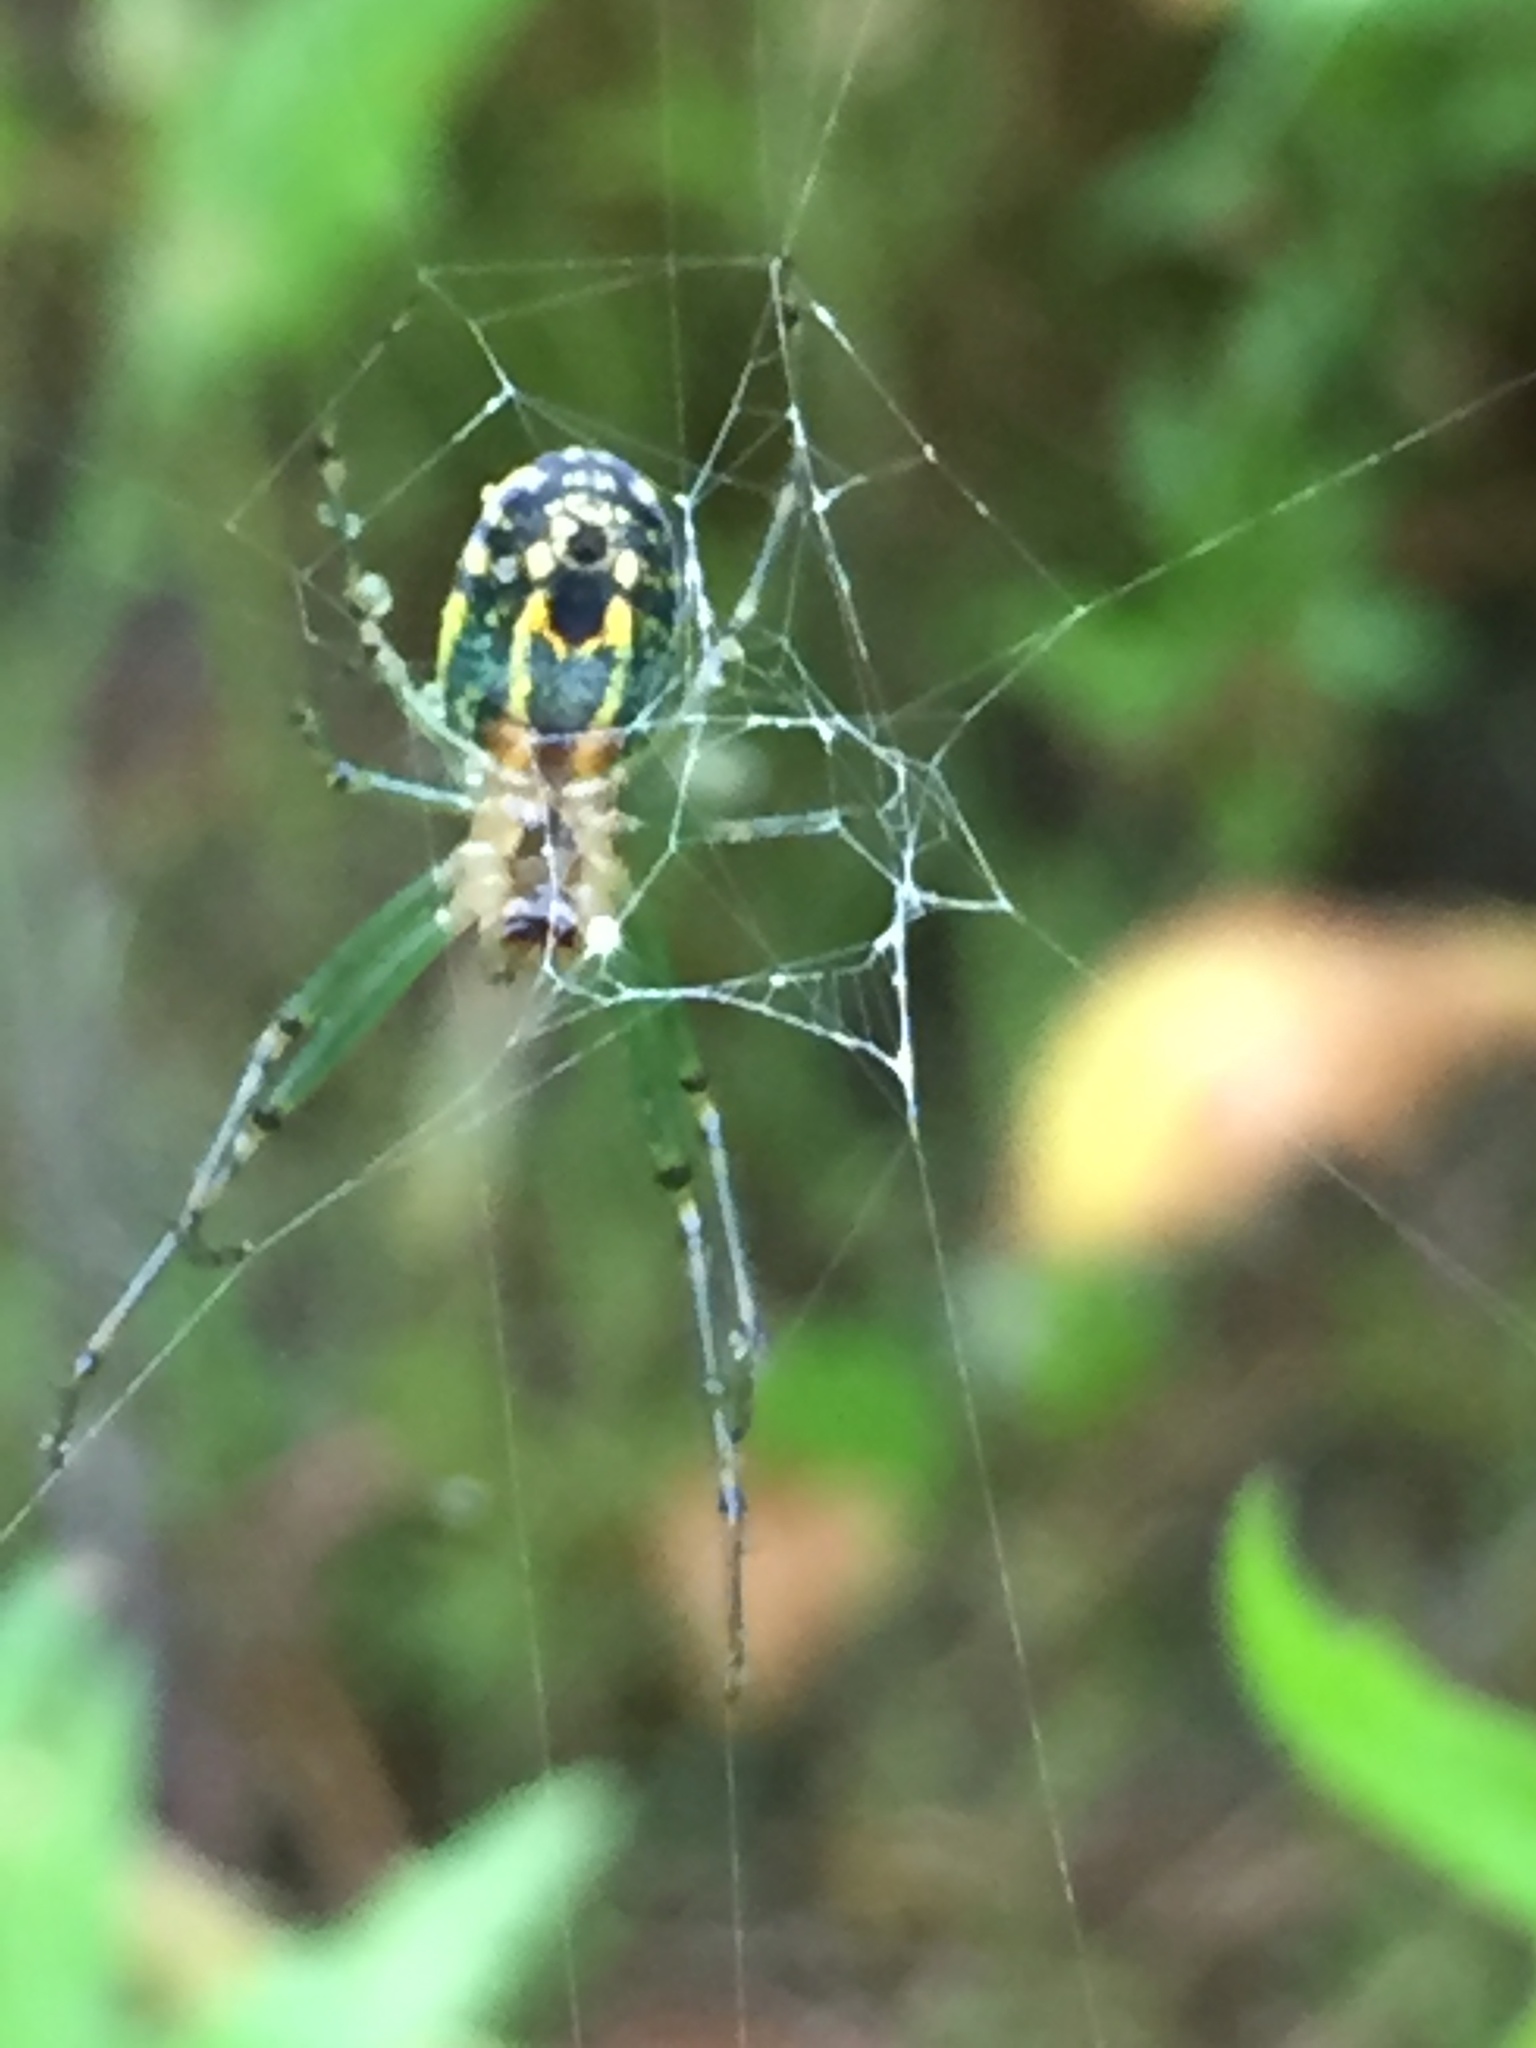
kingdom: Animalia
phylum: Arthropoda
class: Arachnida
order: Araneae
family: Tetragnathidae
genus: Leucauge
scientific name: Leucauge venusta
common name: Longjawed orb weavers
